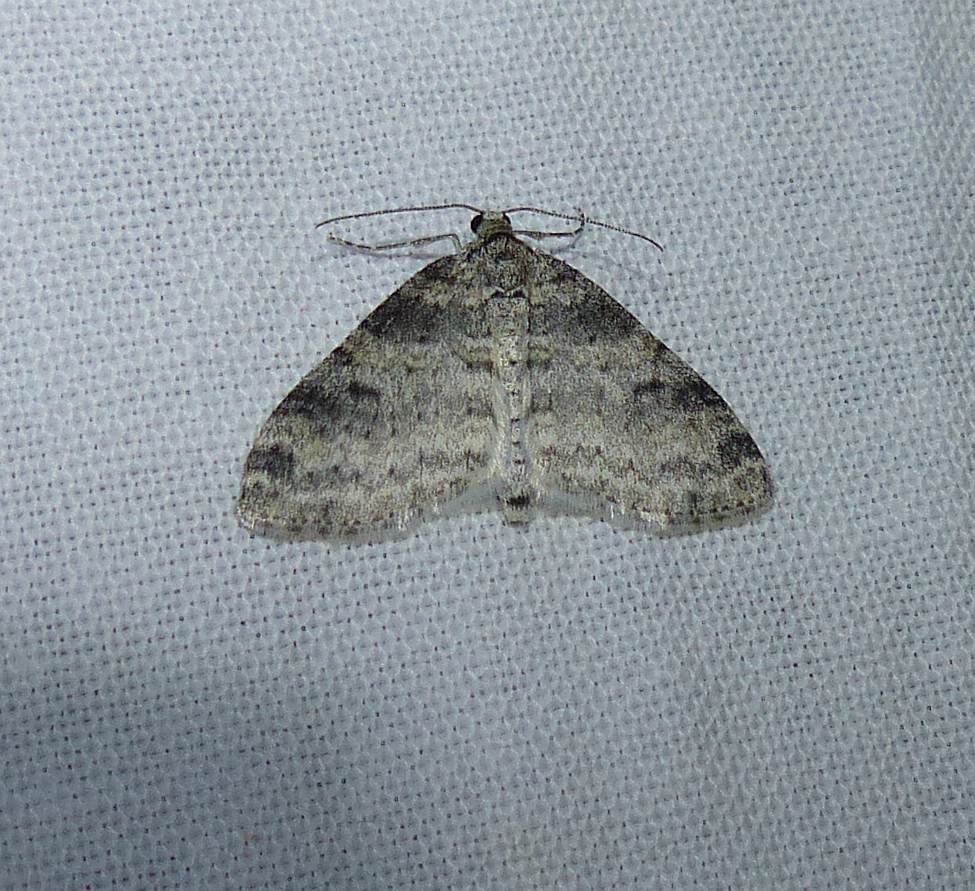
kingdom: Animalia
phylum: Arthropoda
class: Insecta
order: Lepidoptera
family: Geometridae
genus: Lobophora
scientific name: Lobophora nivigerata
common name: Powdered bigwing
